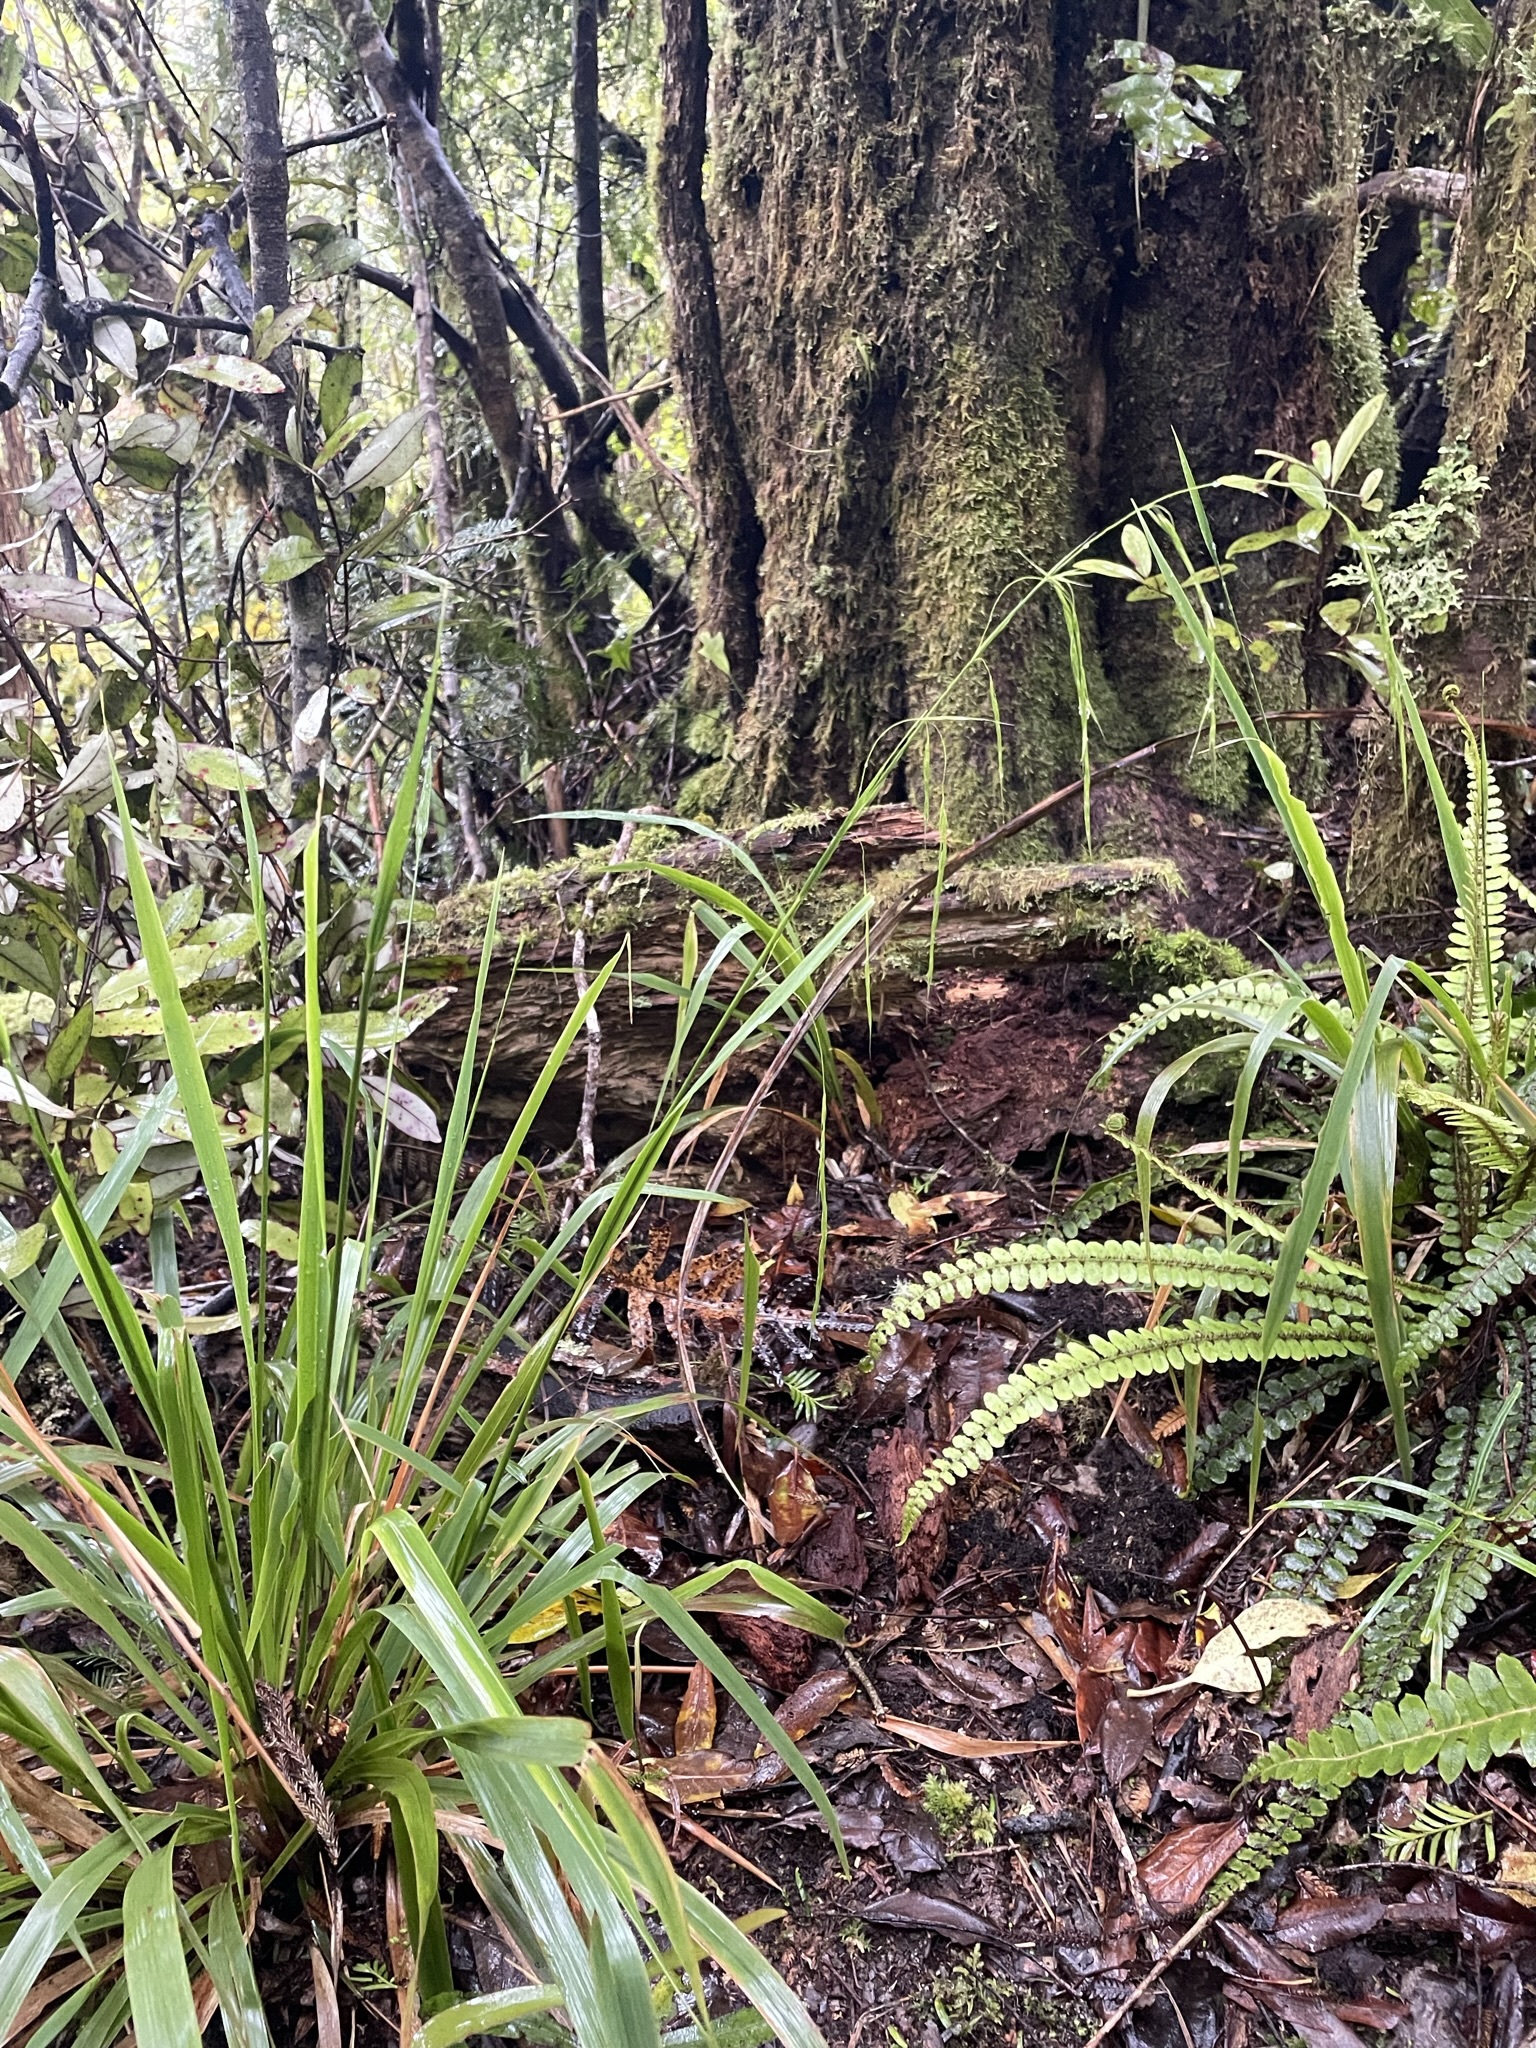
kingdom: Plantae
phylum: Tracheophyta
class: Liliopsida
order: Poales
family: Poaceae
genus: Ehrharta
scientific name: Ehrharta diplax
